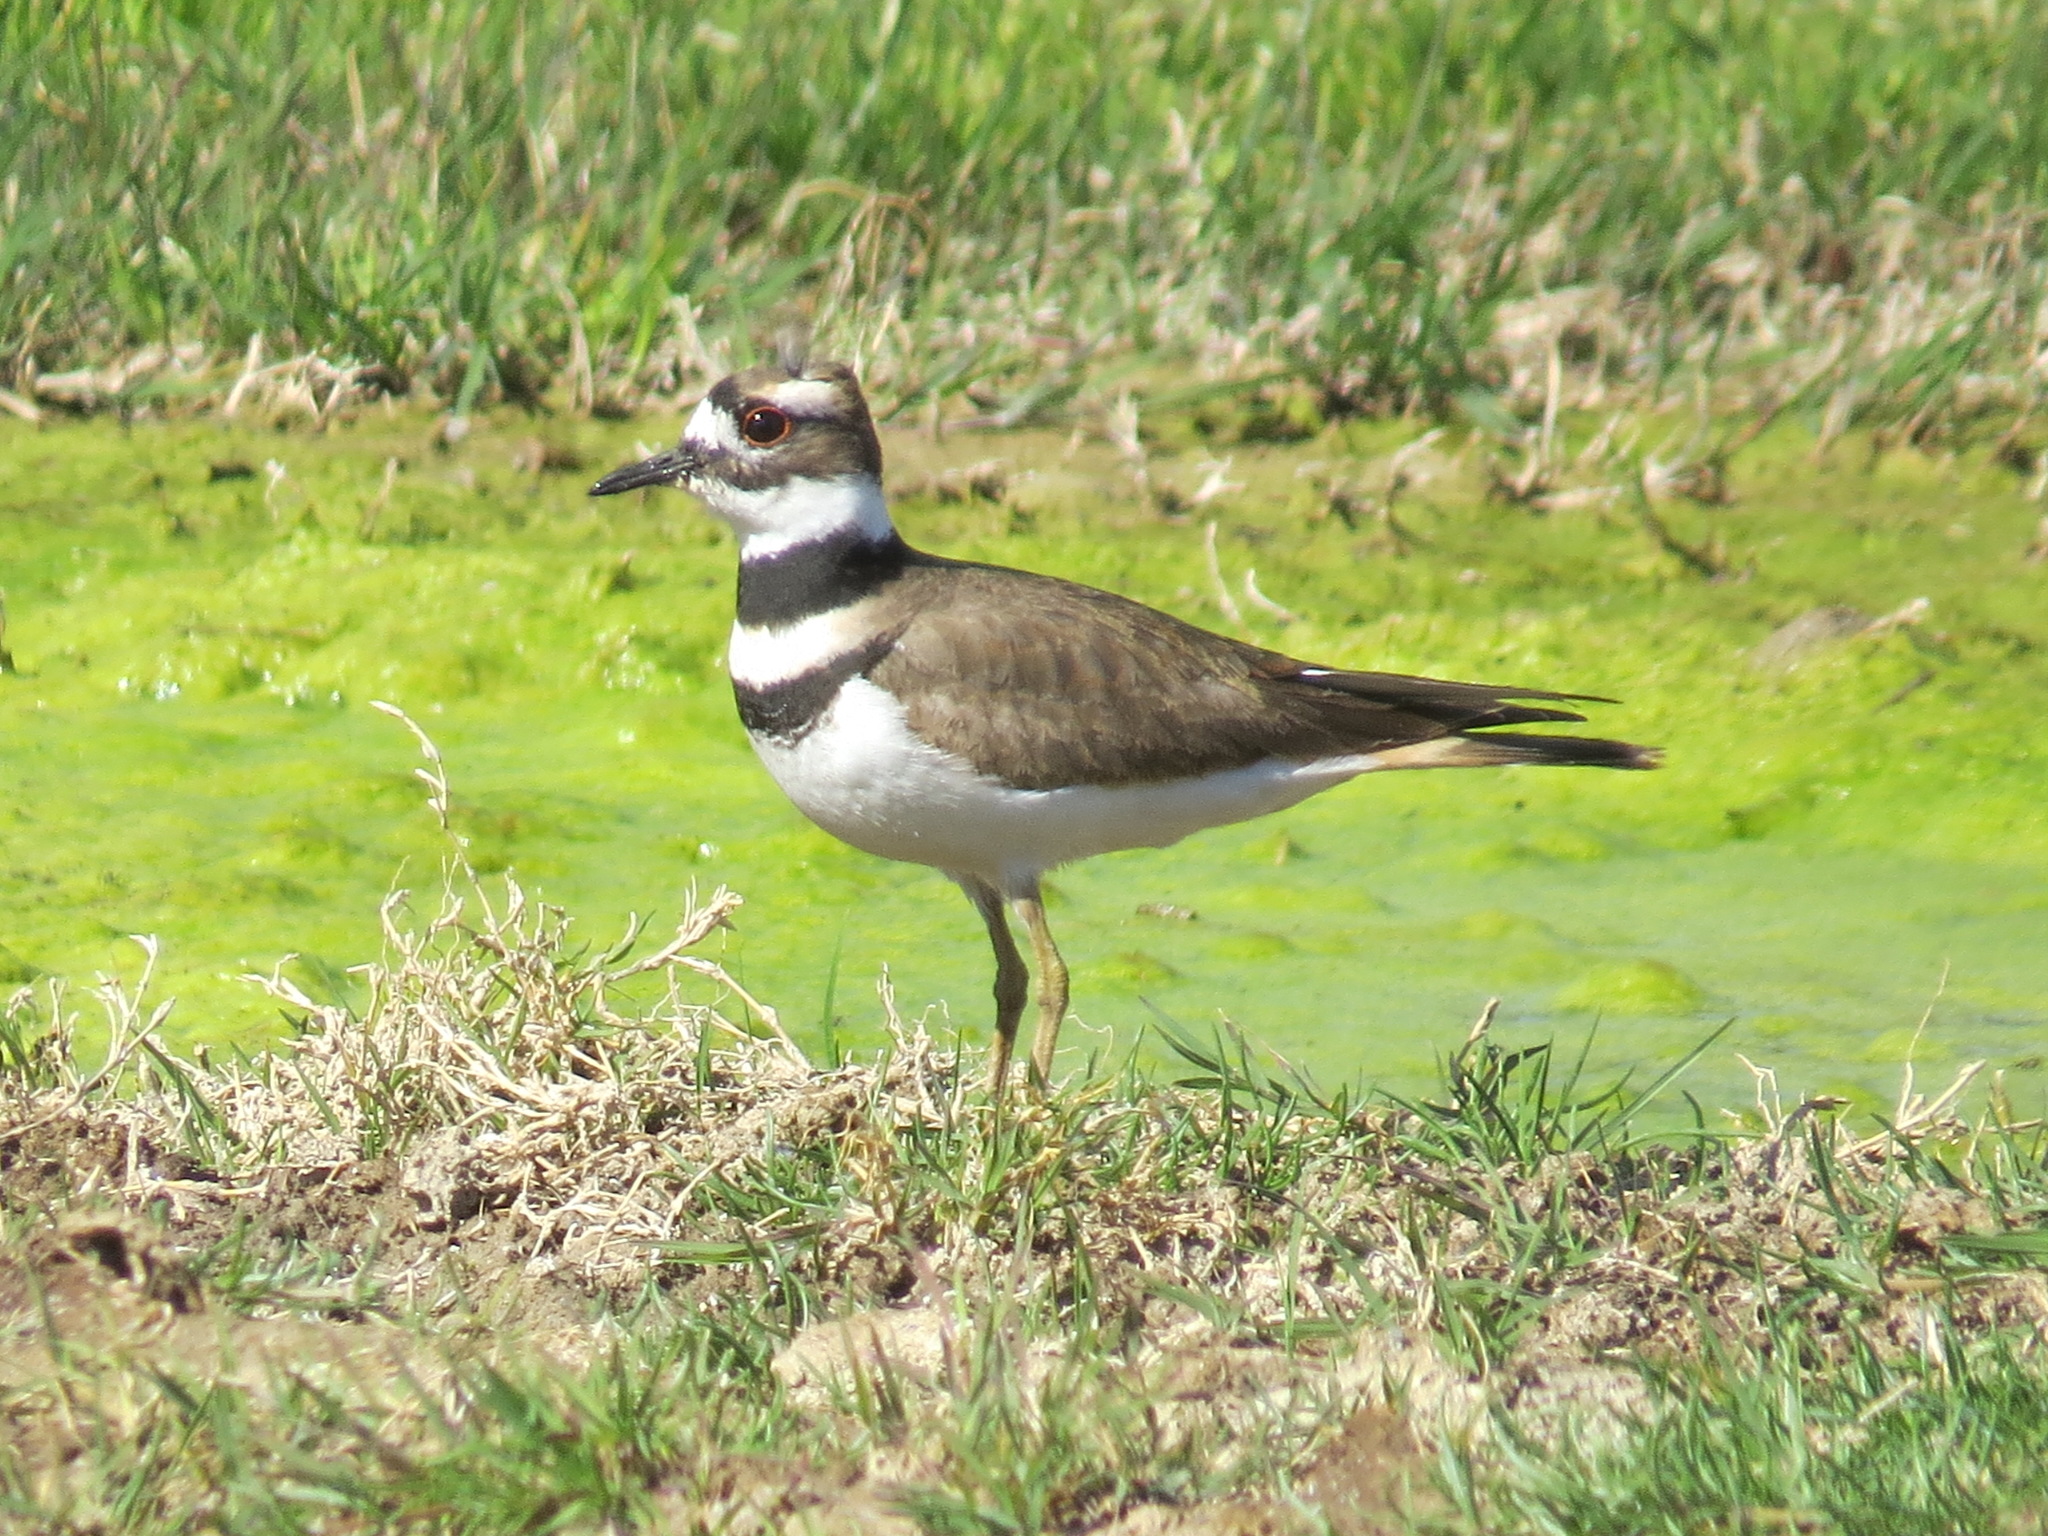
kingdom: Animalia
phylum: Chordata
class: Aves
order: Charadriiformes
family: Charadriidae
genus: Charadrius
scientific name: Charadrius vociferus
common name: Killdeer
